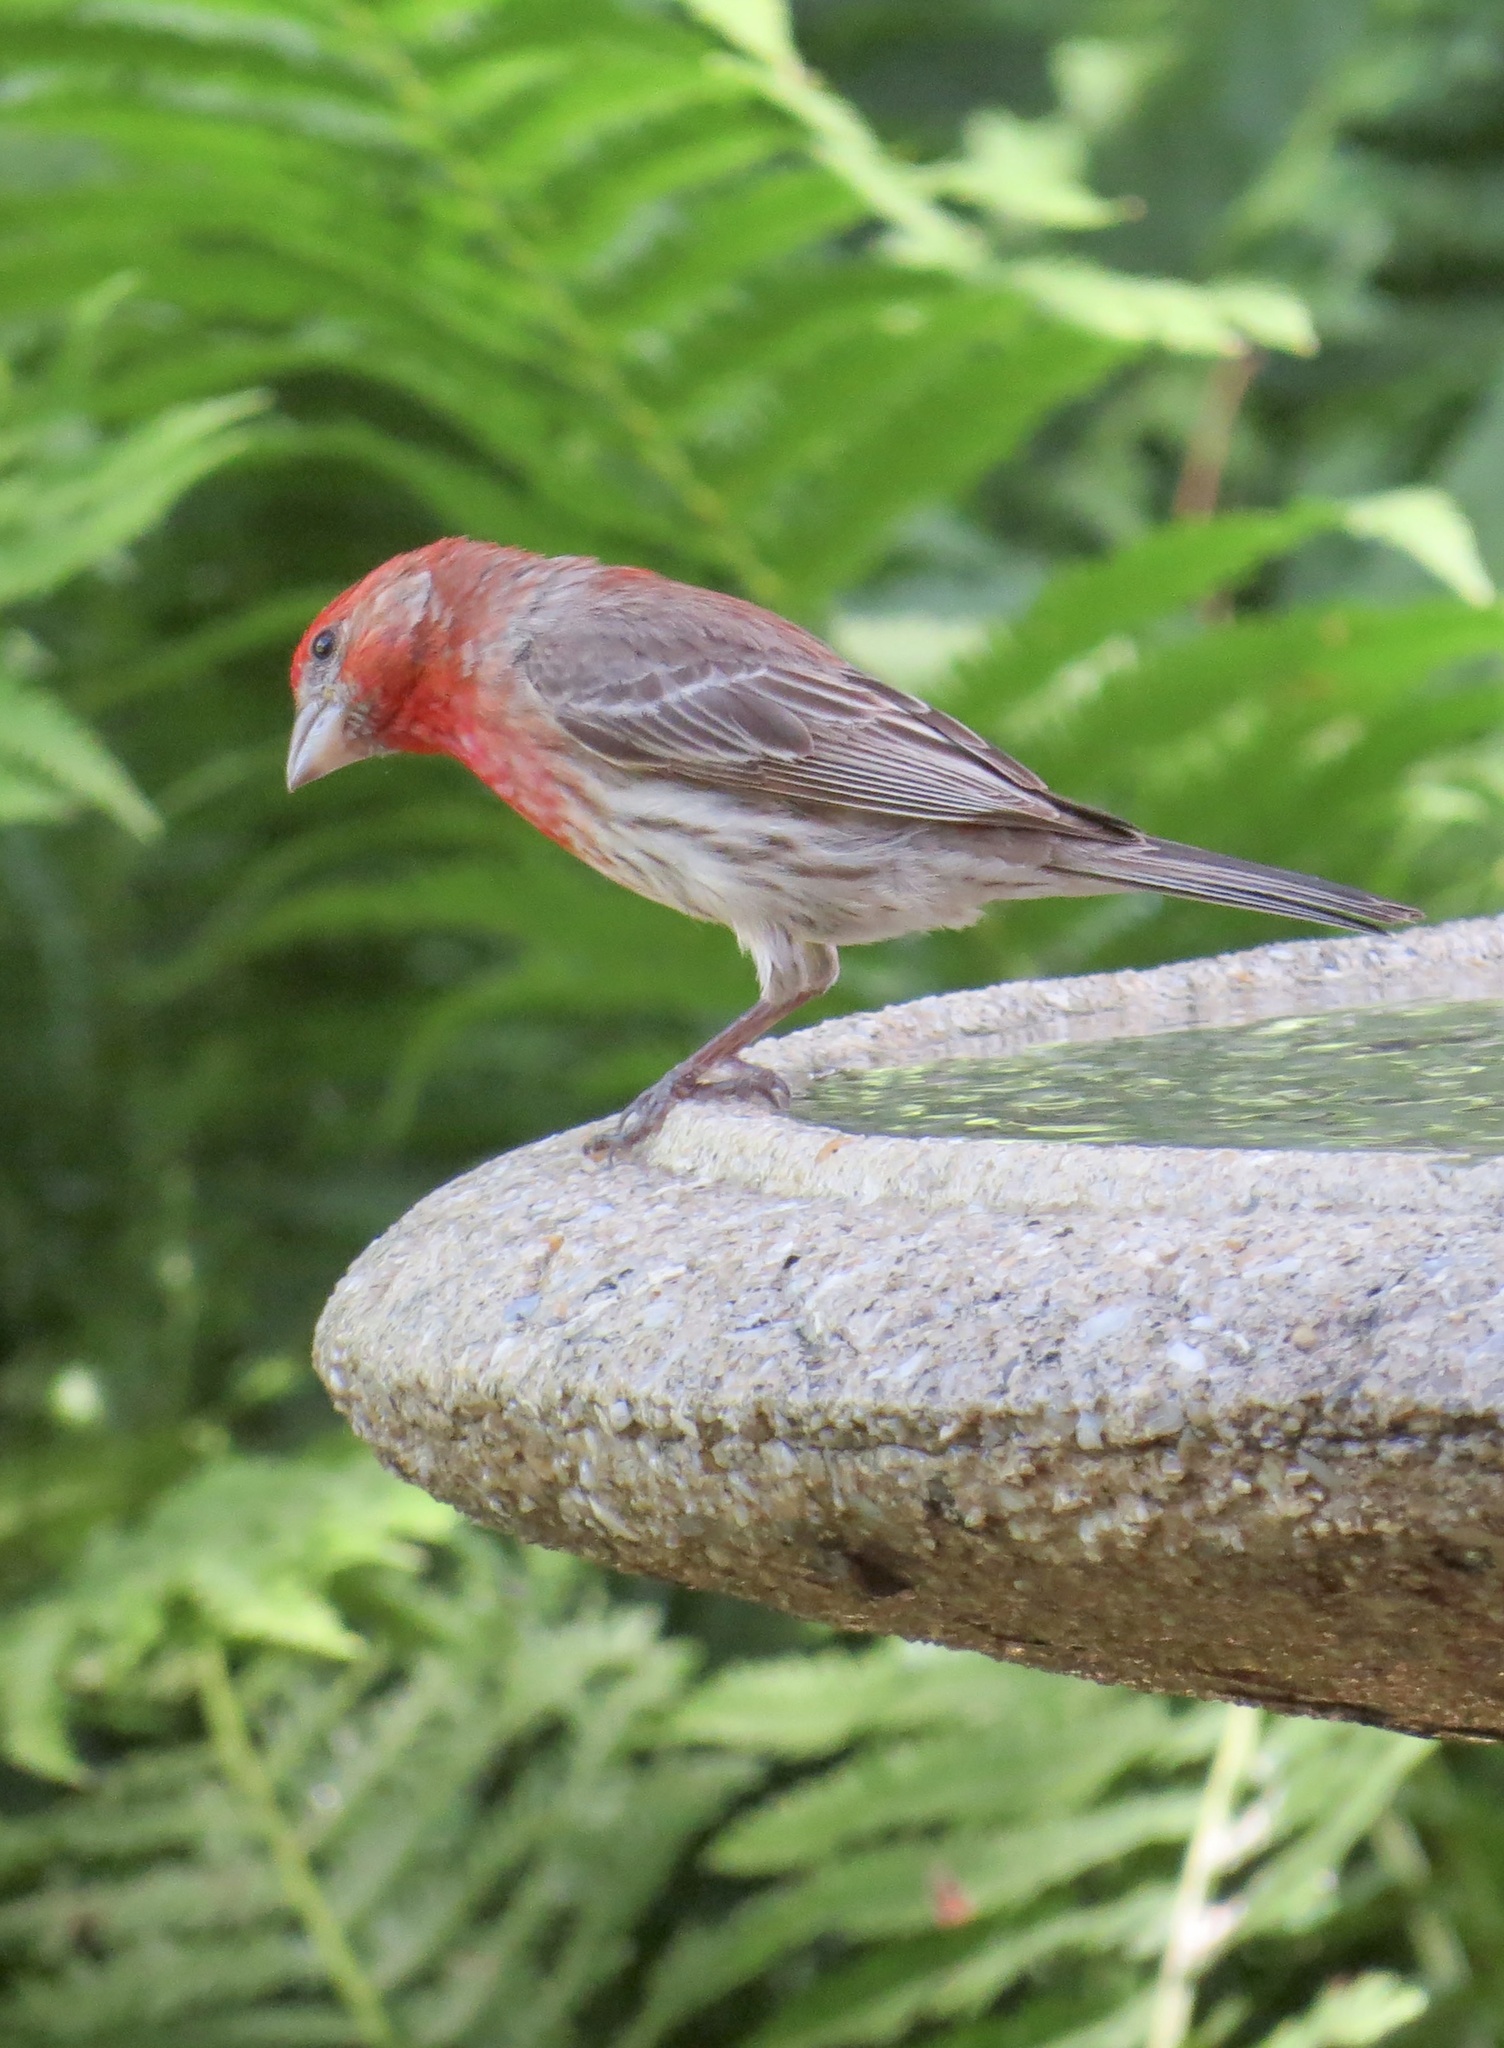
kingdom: Animalia
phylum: Chordata
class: Aves
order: Passeriformes
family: Fringillidae
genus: Haemorhous
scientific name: Haemorhous mexicanus
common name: House finch
